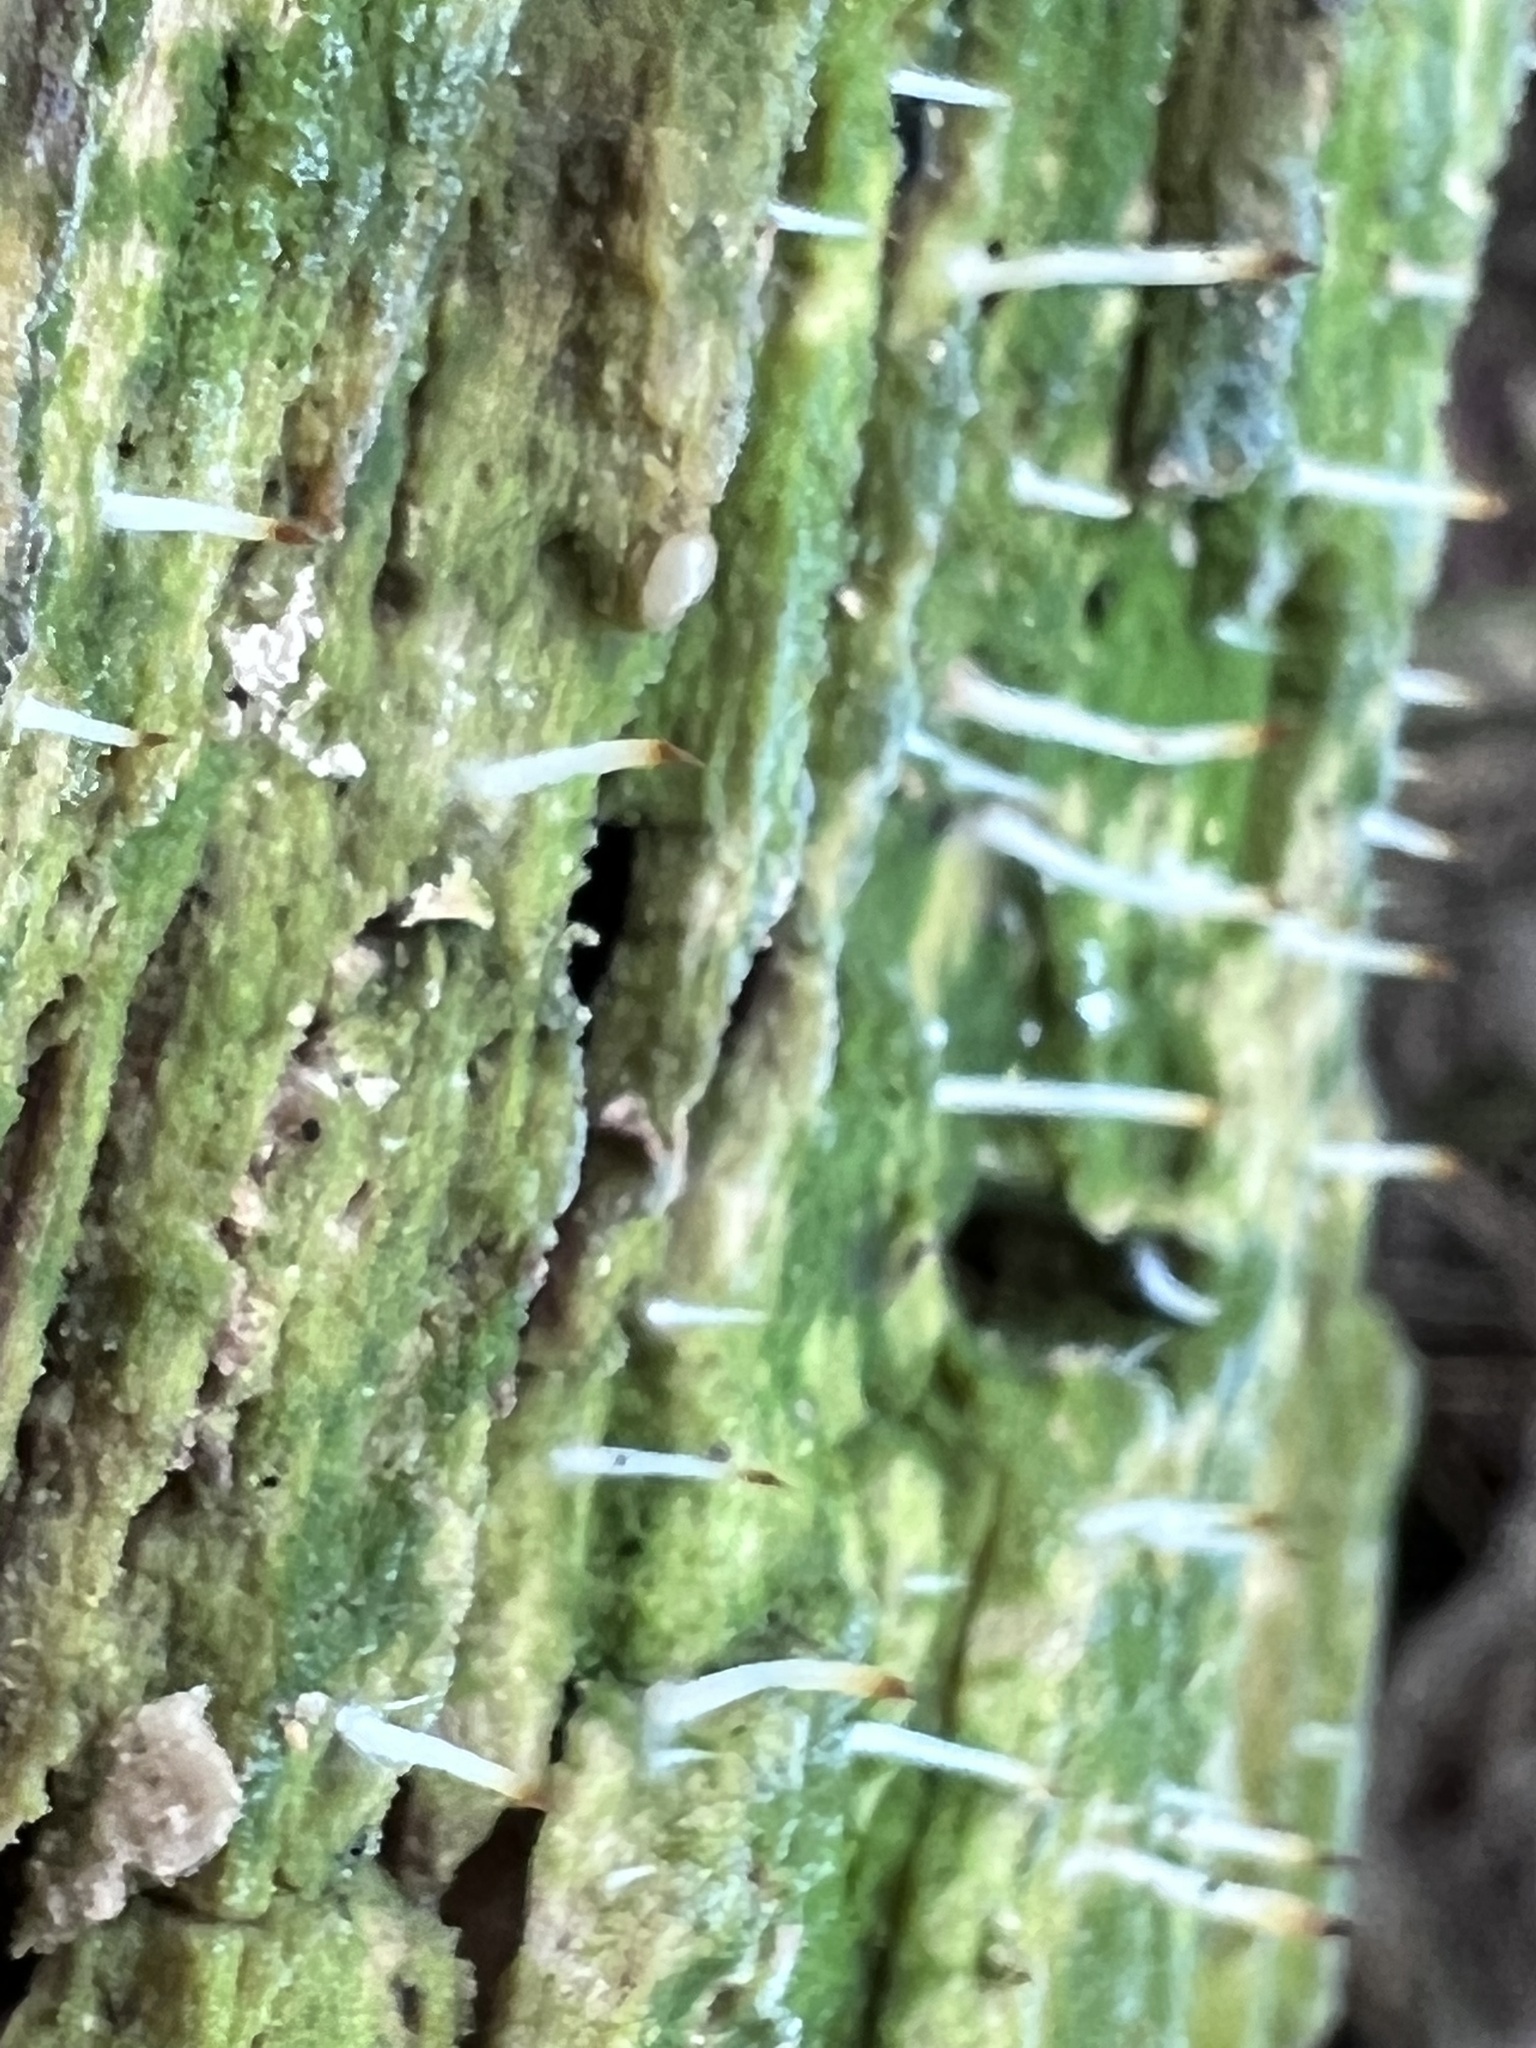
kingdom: Fungi
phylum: Basidiomycota
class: Agaricomycetes
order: Cantharellales
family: Hydnaceae
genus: Multiclavula
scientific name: Multiclavula mucida
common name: White green-algae coral
